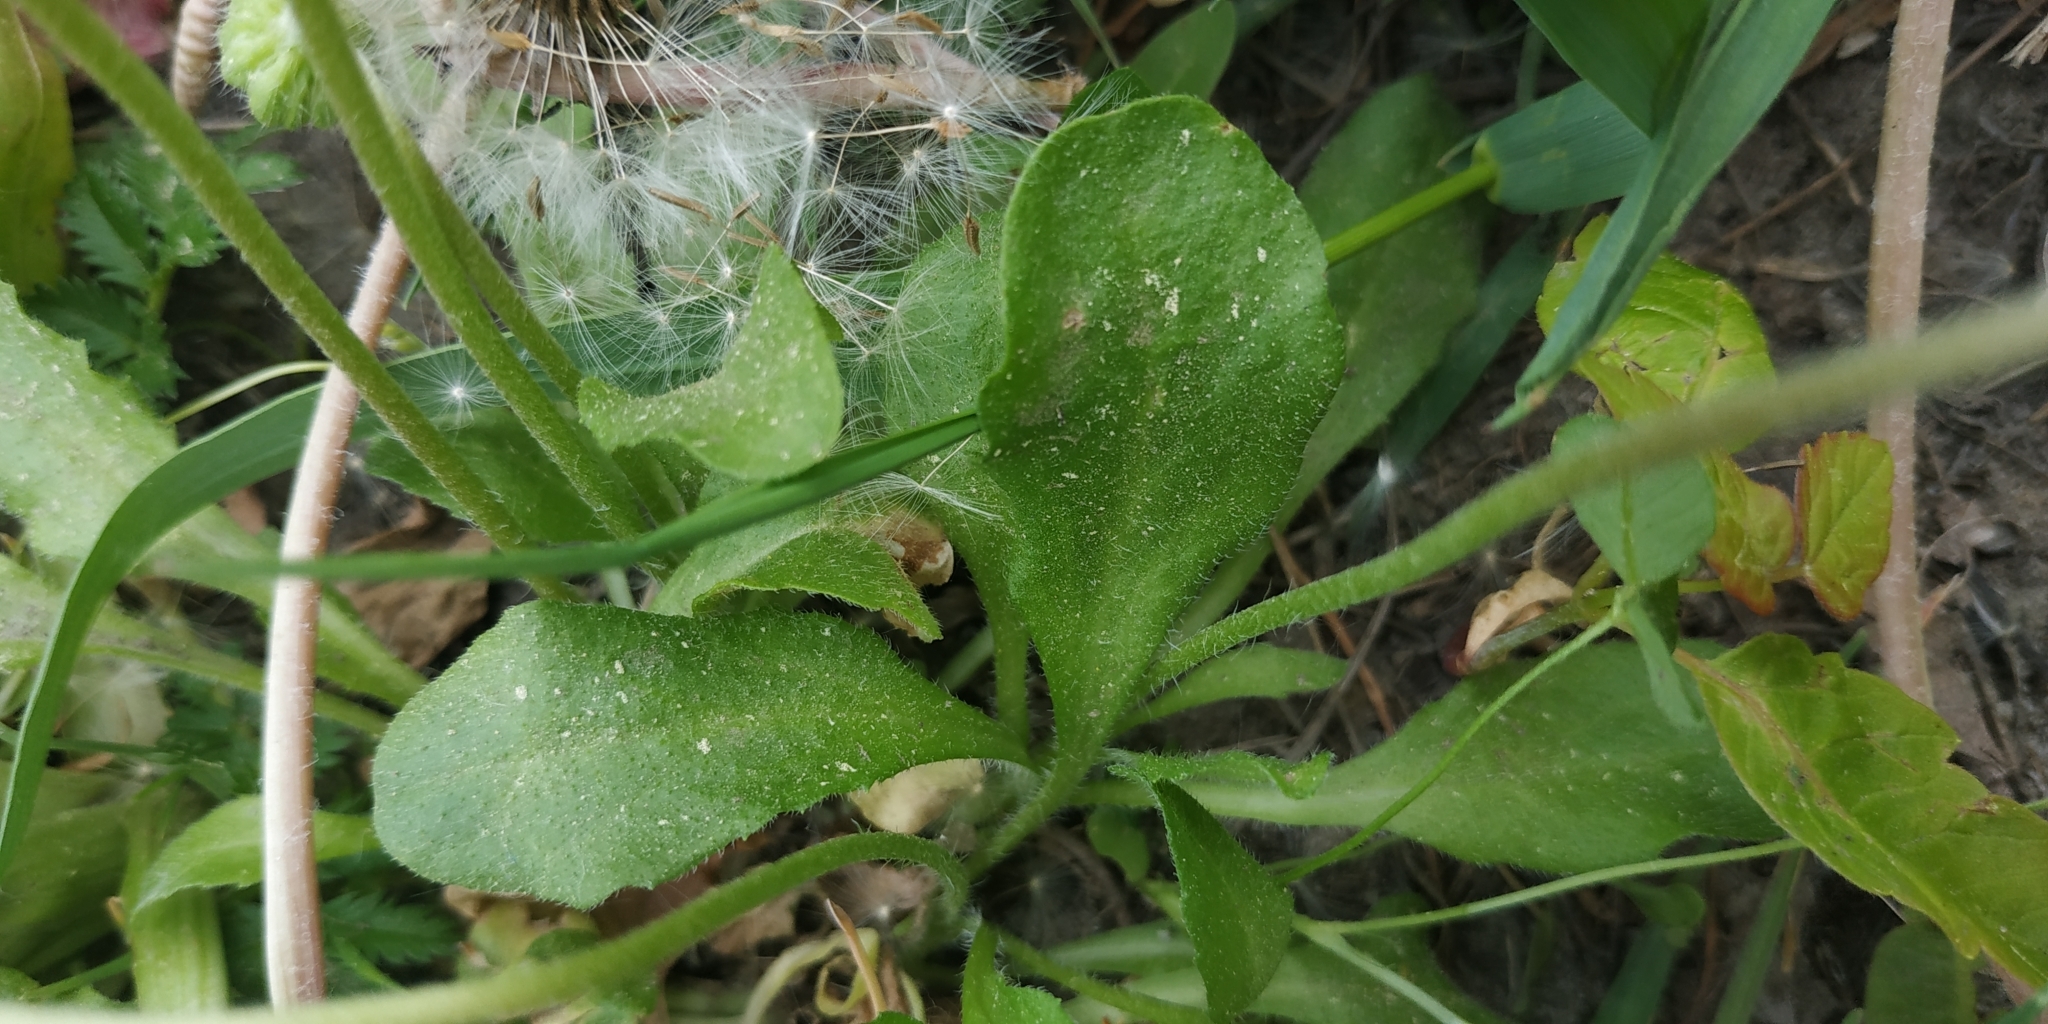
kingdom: Plantae
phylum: Tracheophyta
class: Magnoliopsida
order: Asterales
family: Asteraceae
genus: Bellis
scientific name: Bellis perennis
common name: Lawndaisy
